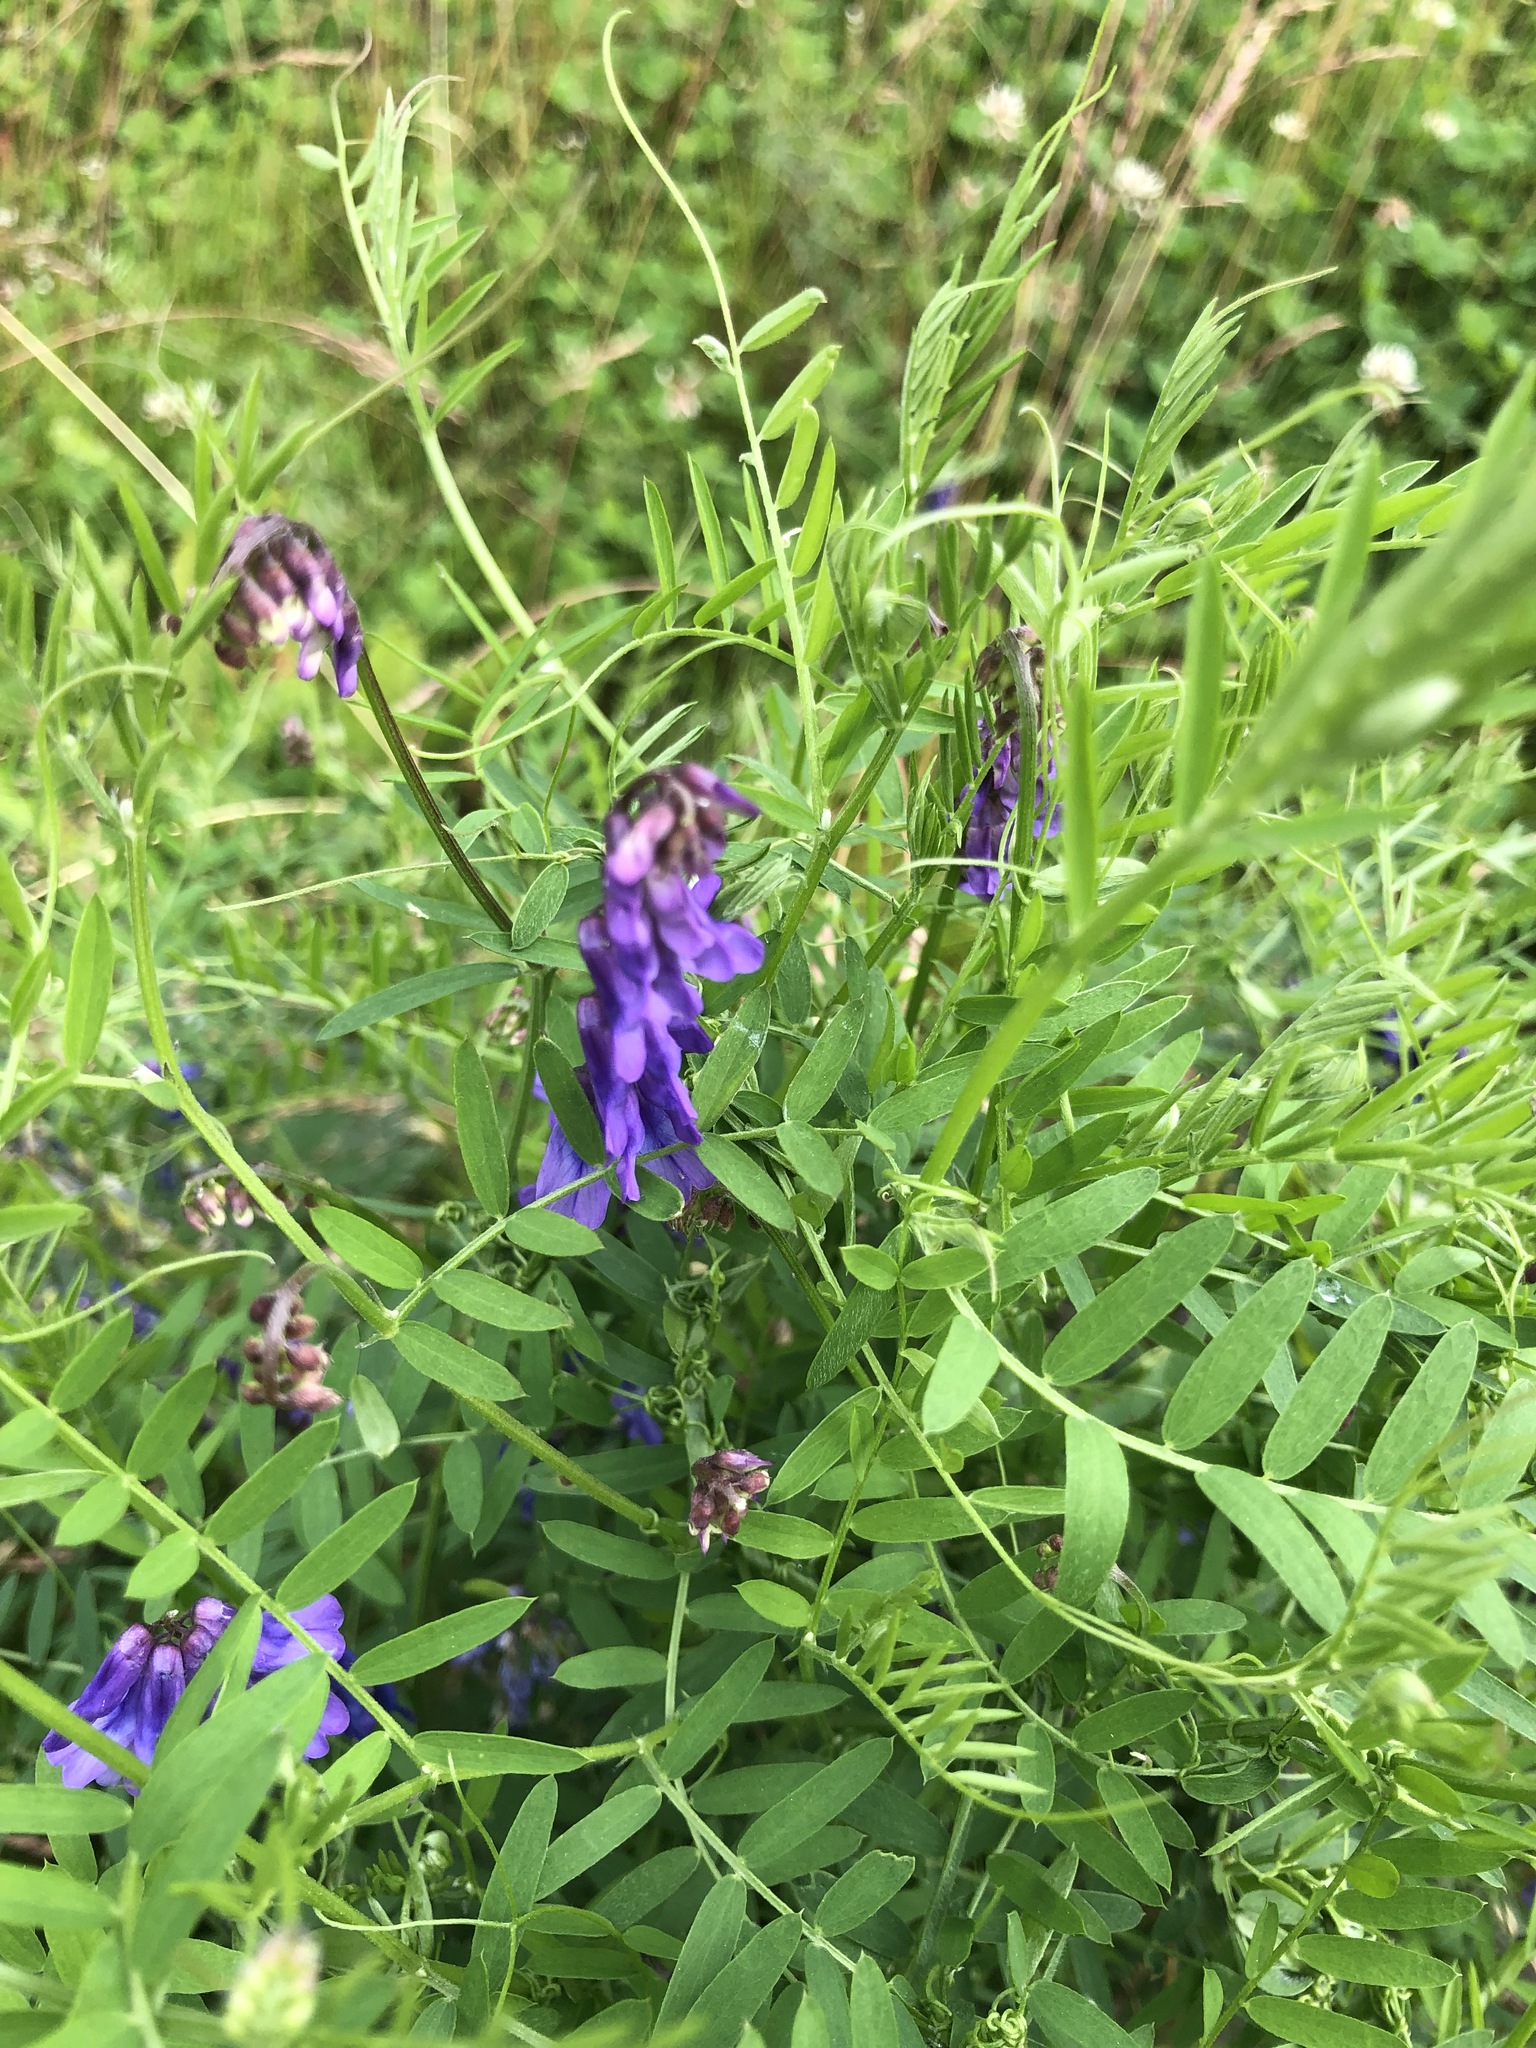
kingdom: Plantae
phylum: Tracheophyta
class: Magnoliopsida
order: Fabales
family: Fabaceae
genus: Vicia
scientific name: Vicia cracca
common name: Bird vetch
